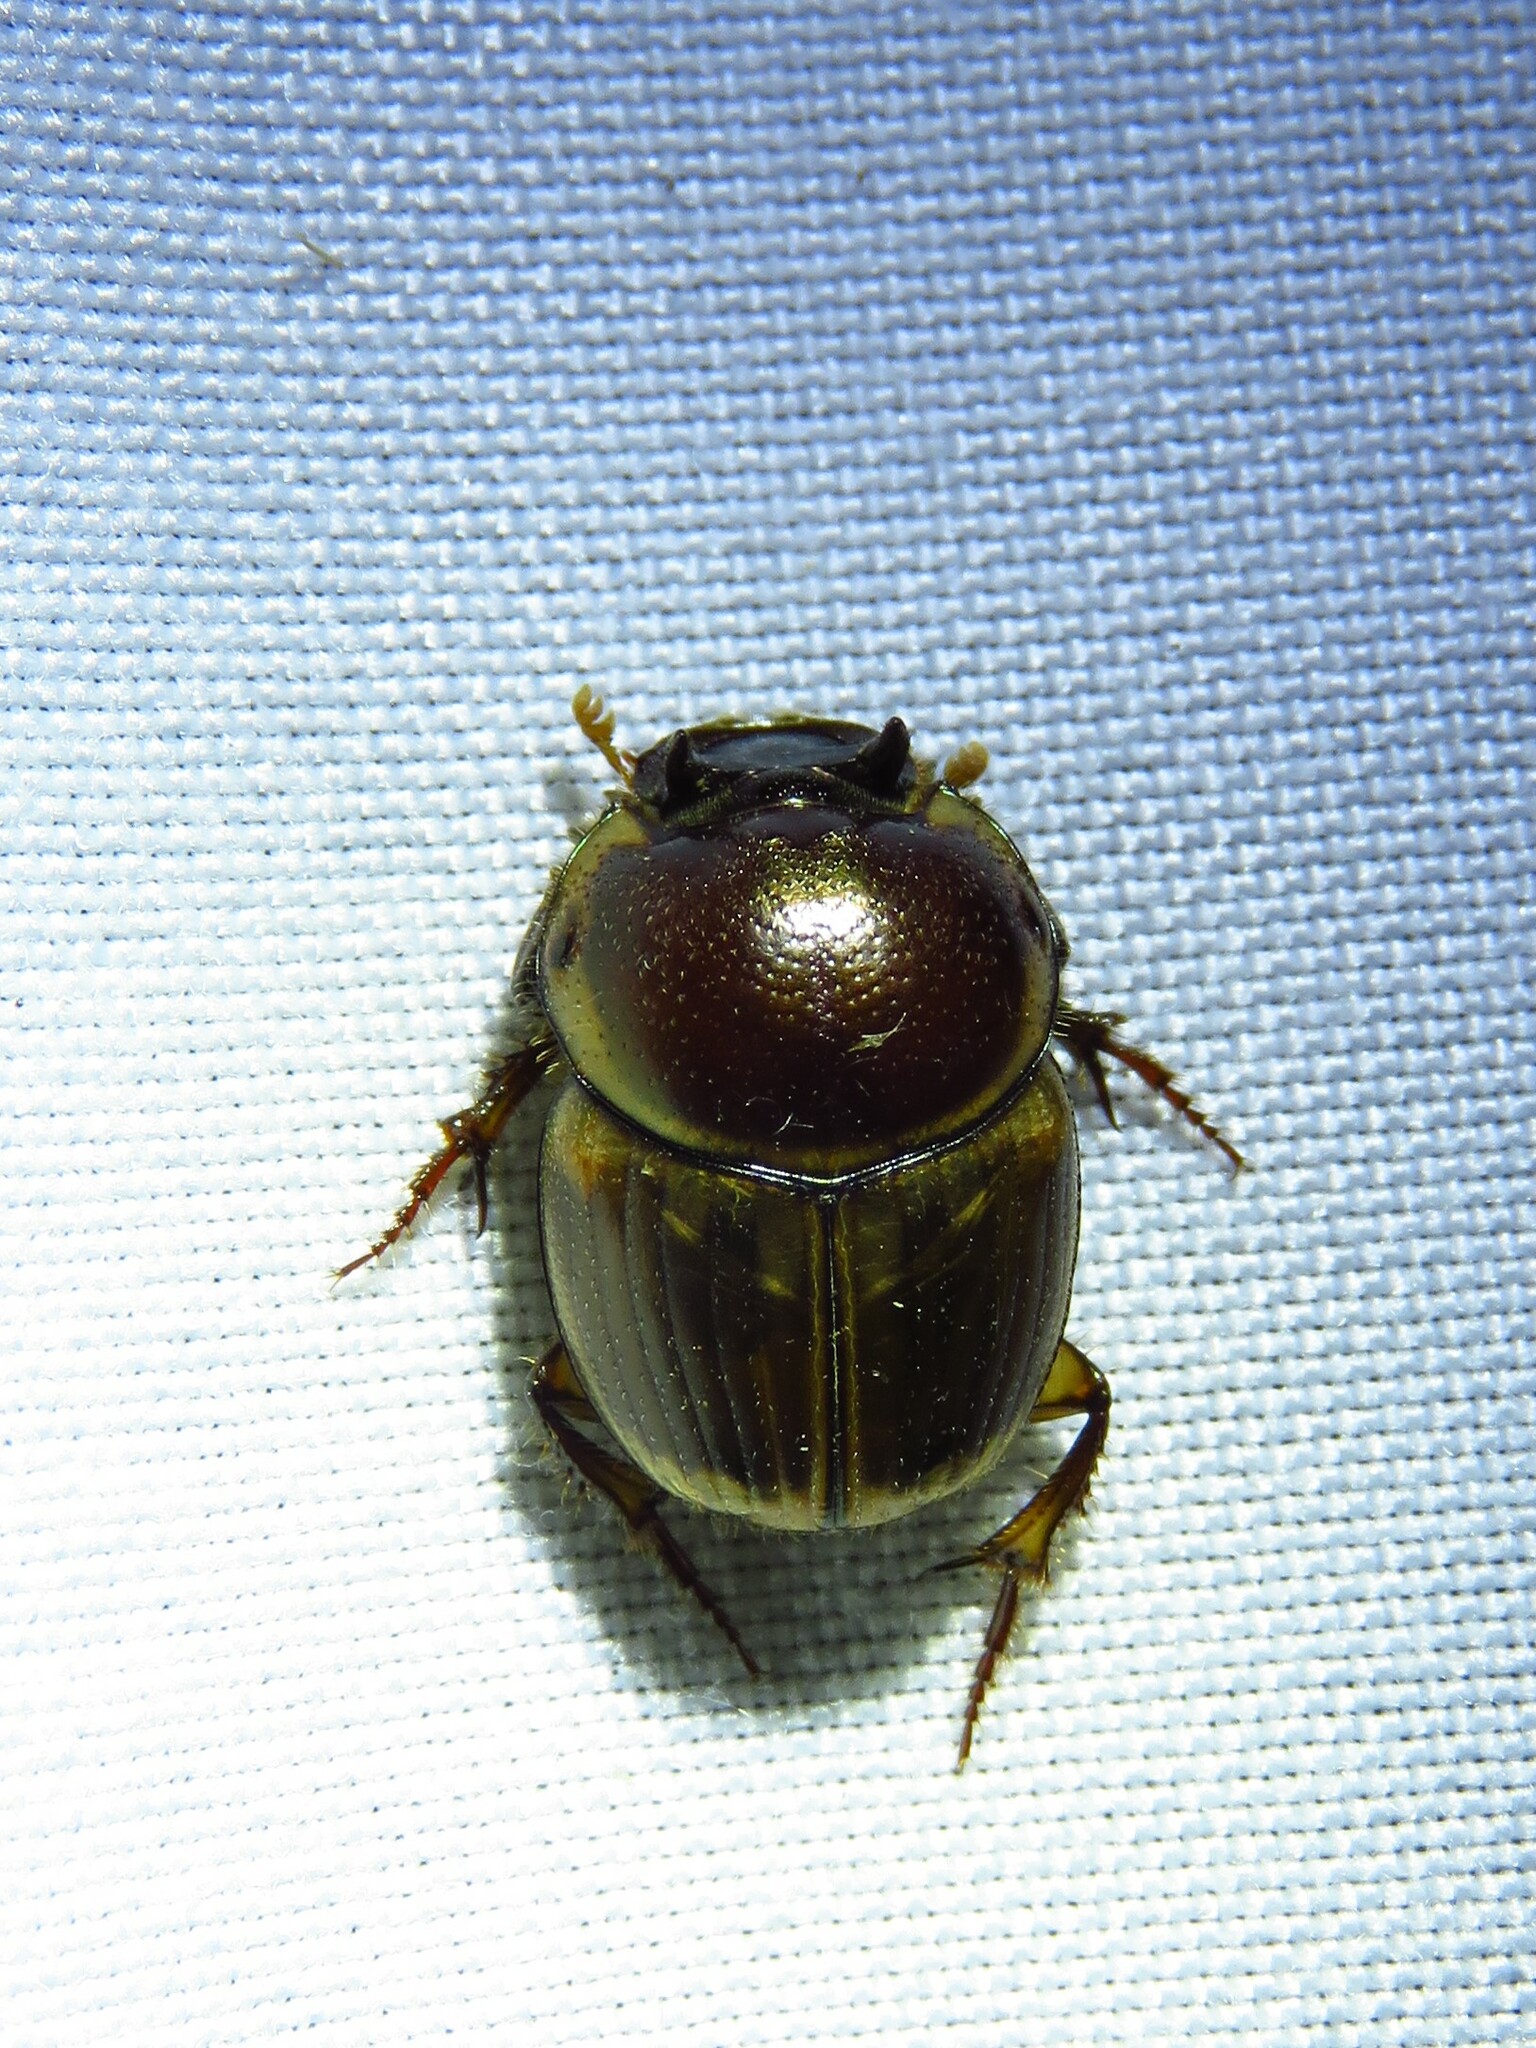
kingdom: Animalia
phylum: Arthropoda
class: Insecta
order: Coleoptera
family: Scarabaeidae
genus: Digitonthophagus
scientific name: Digitonthophagus gazella
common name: Brown dung beetle
